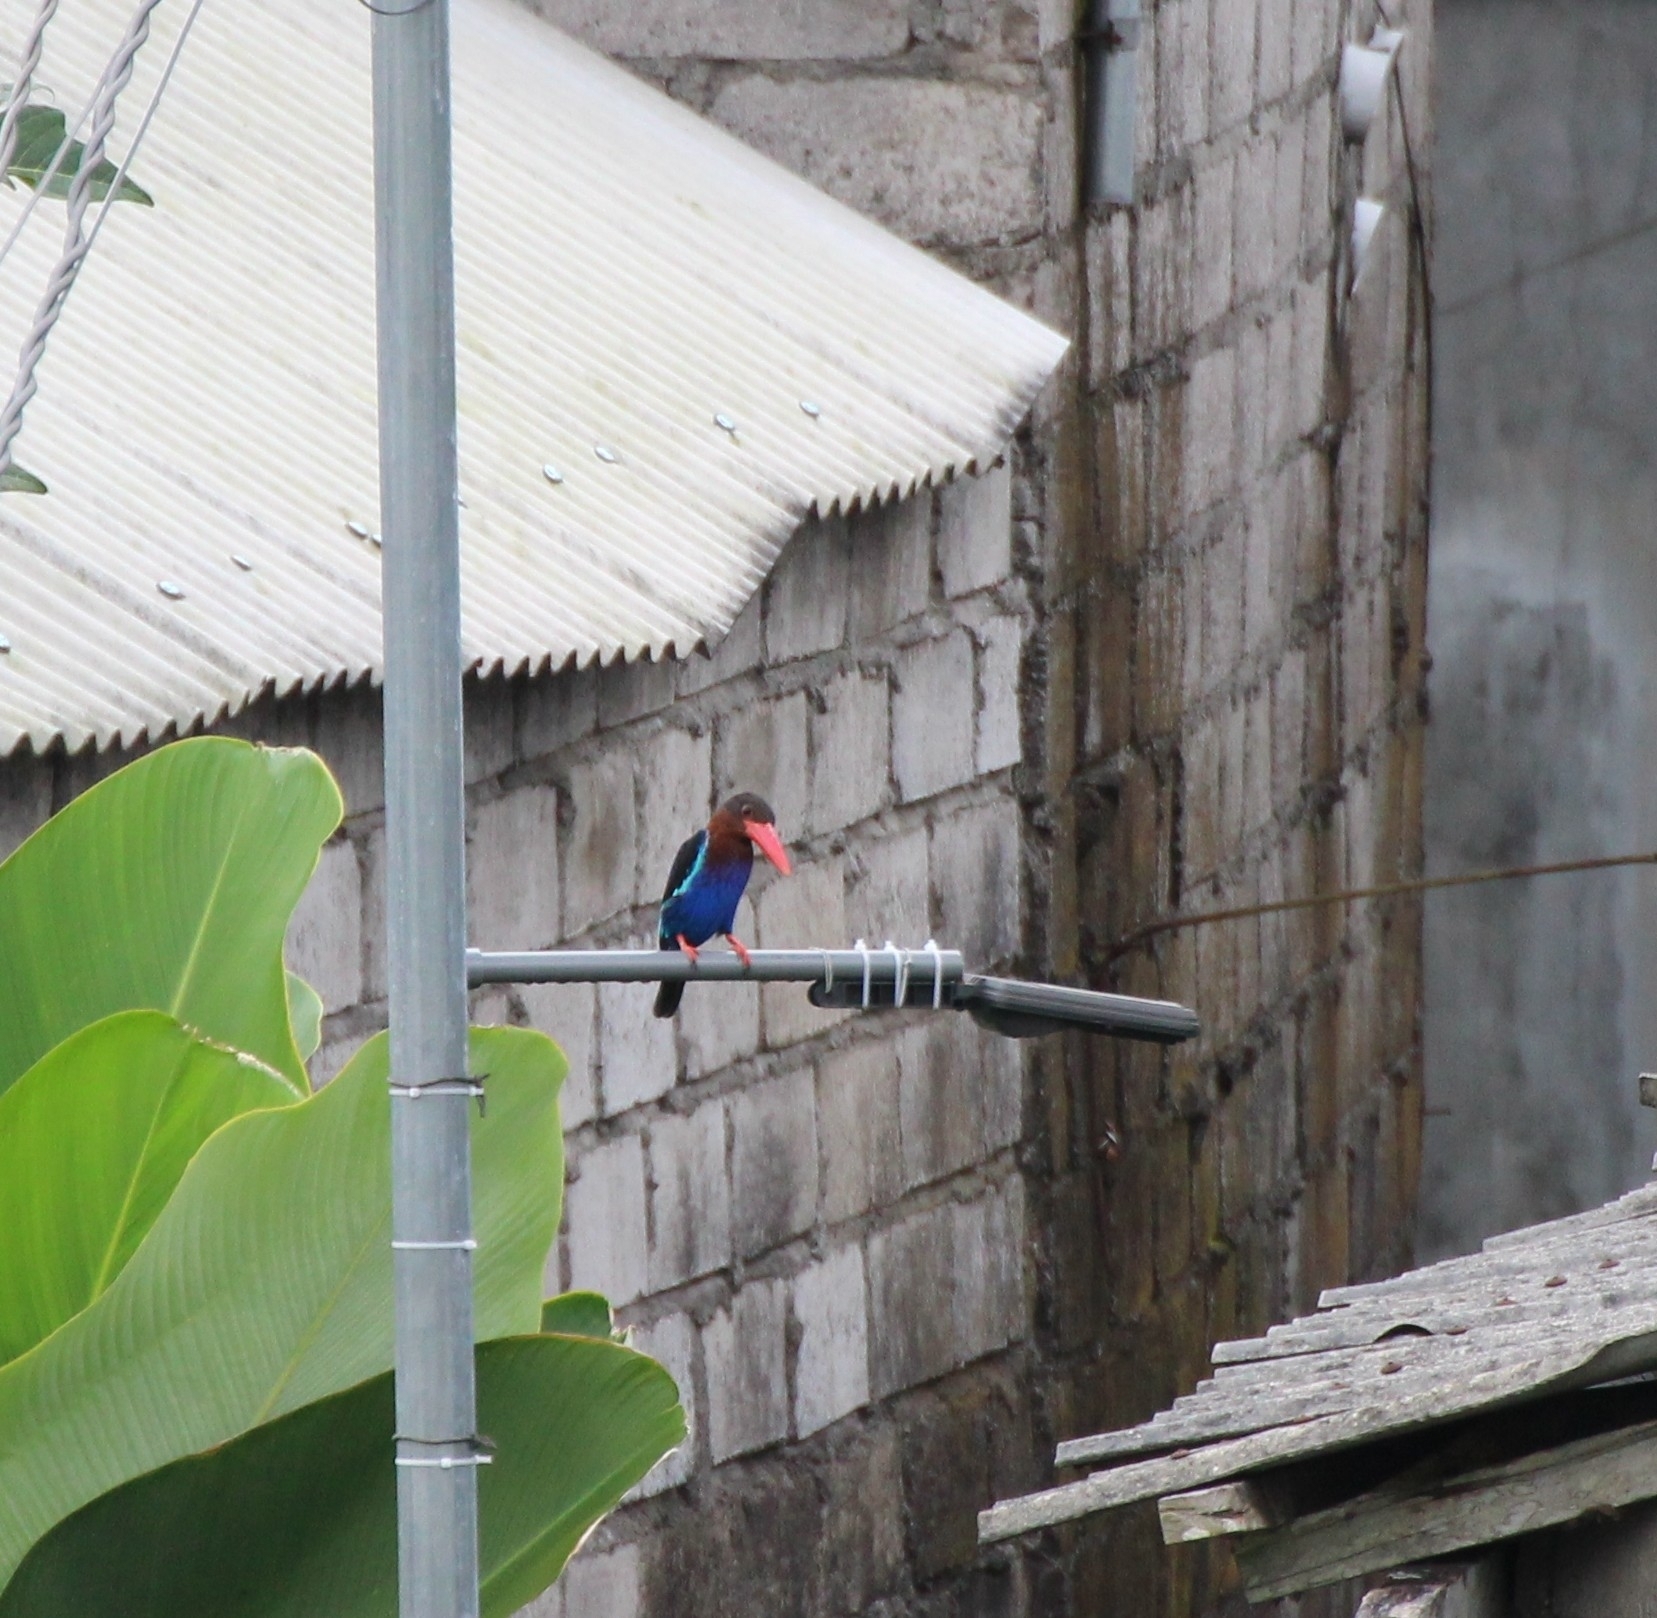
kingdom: Animalia
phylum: Chordata
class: Aves
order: Coraciiformes
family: Alcedinidae
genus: Halcyon
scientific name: Halcyon cyanoventris
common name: Javan kingfisher
